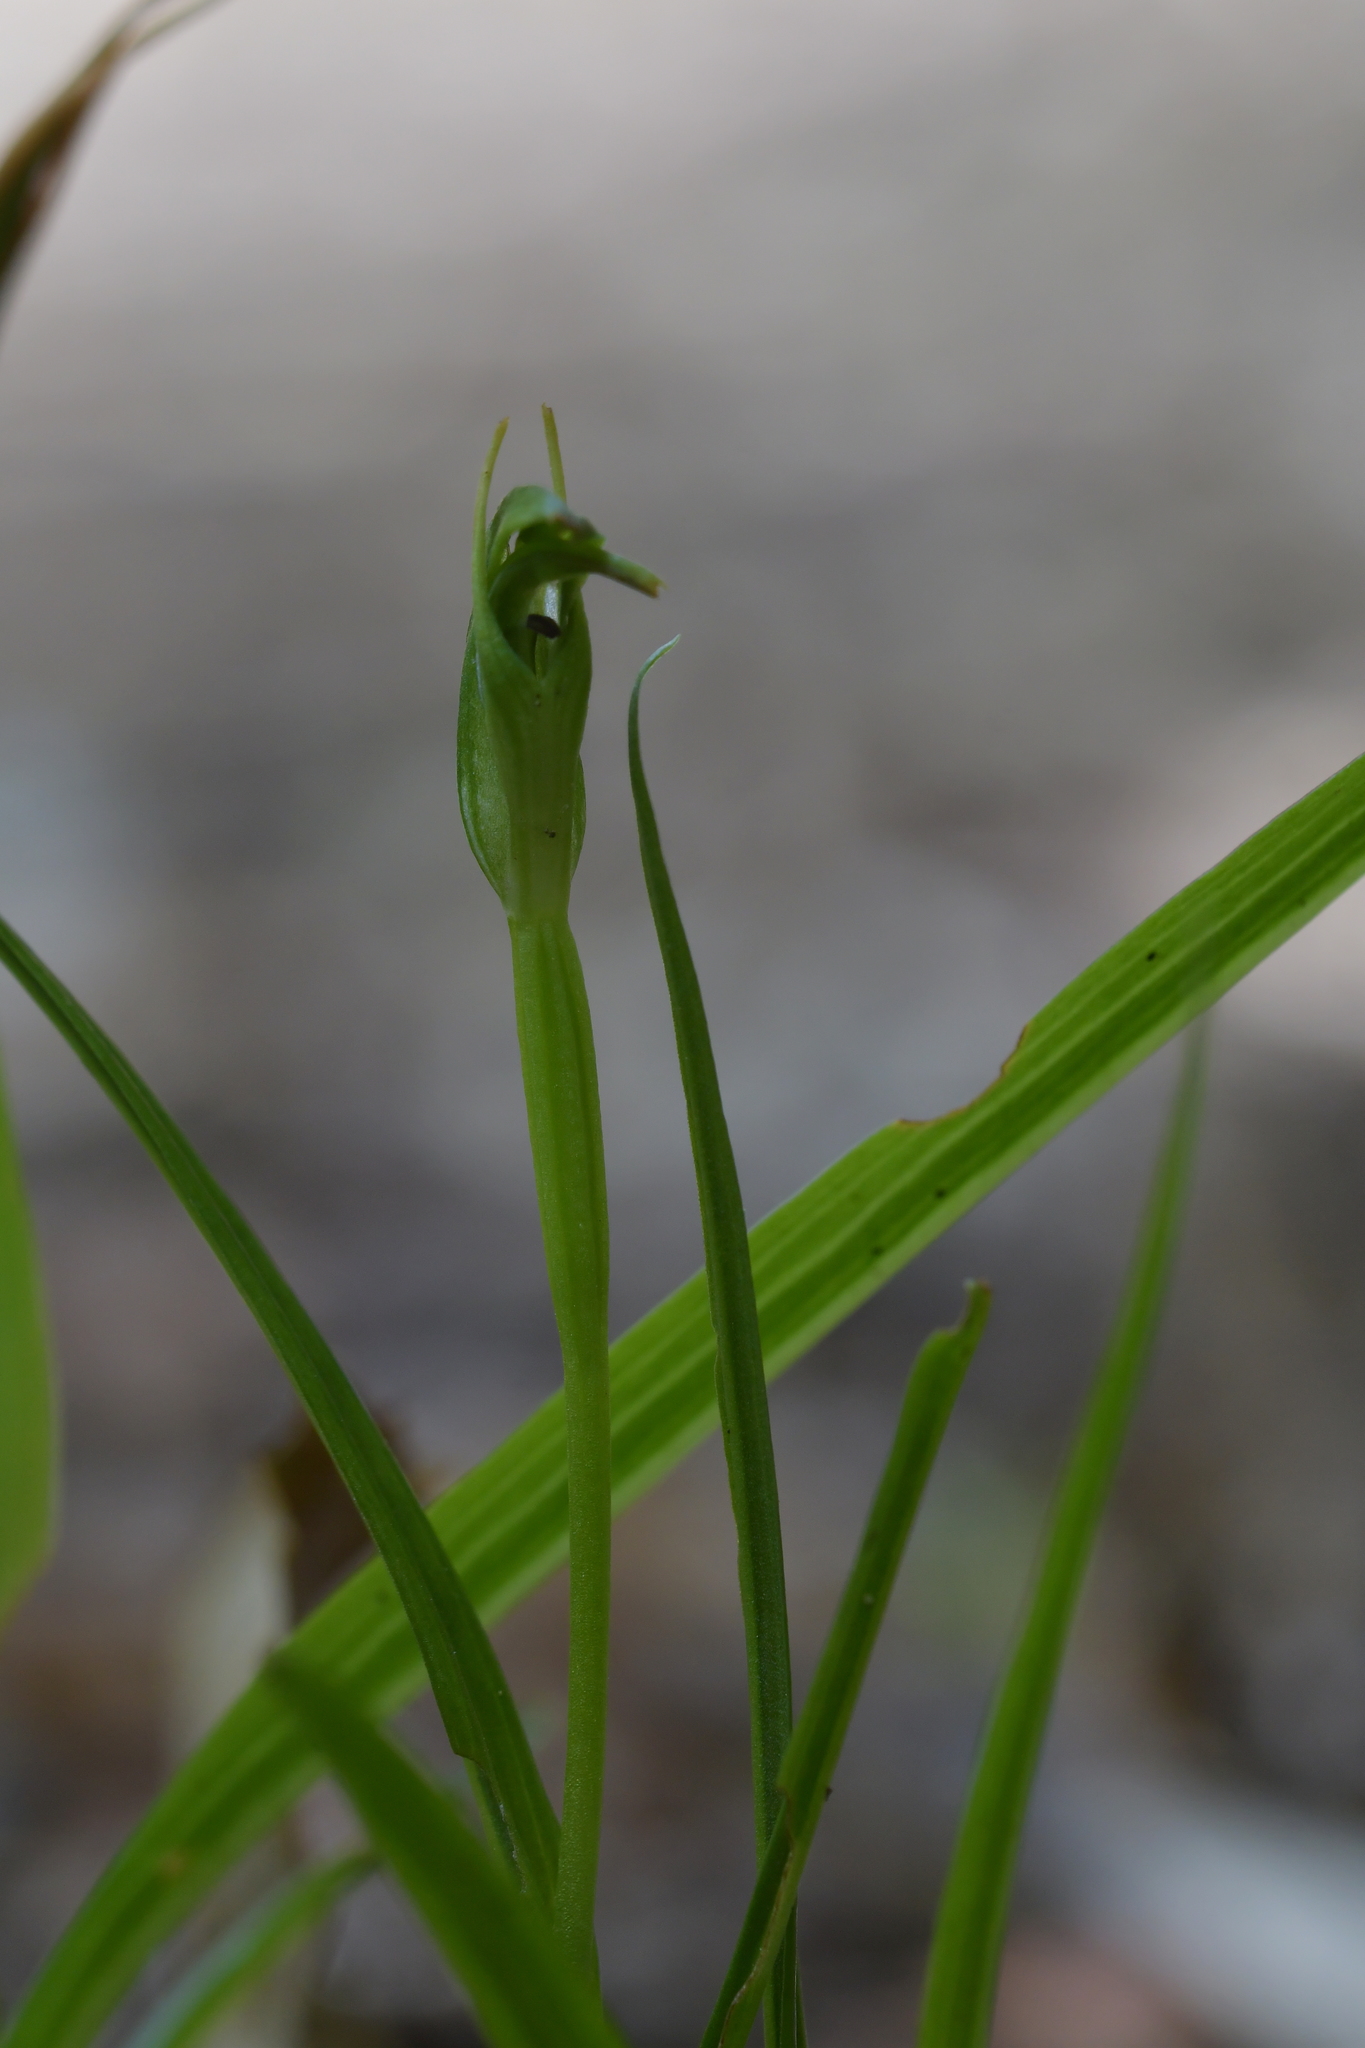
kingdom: Plantae
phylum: Tracheophyta
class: Liliopsida
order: Asparagales
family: Orchidaceae
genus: Pterostylis
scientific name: Pterostylis graminea
